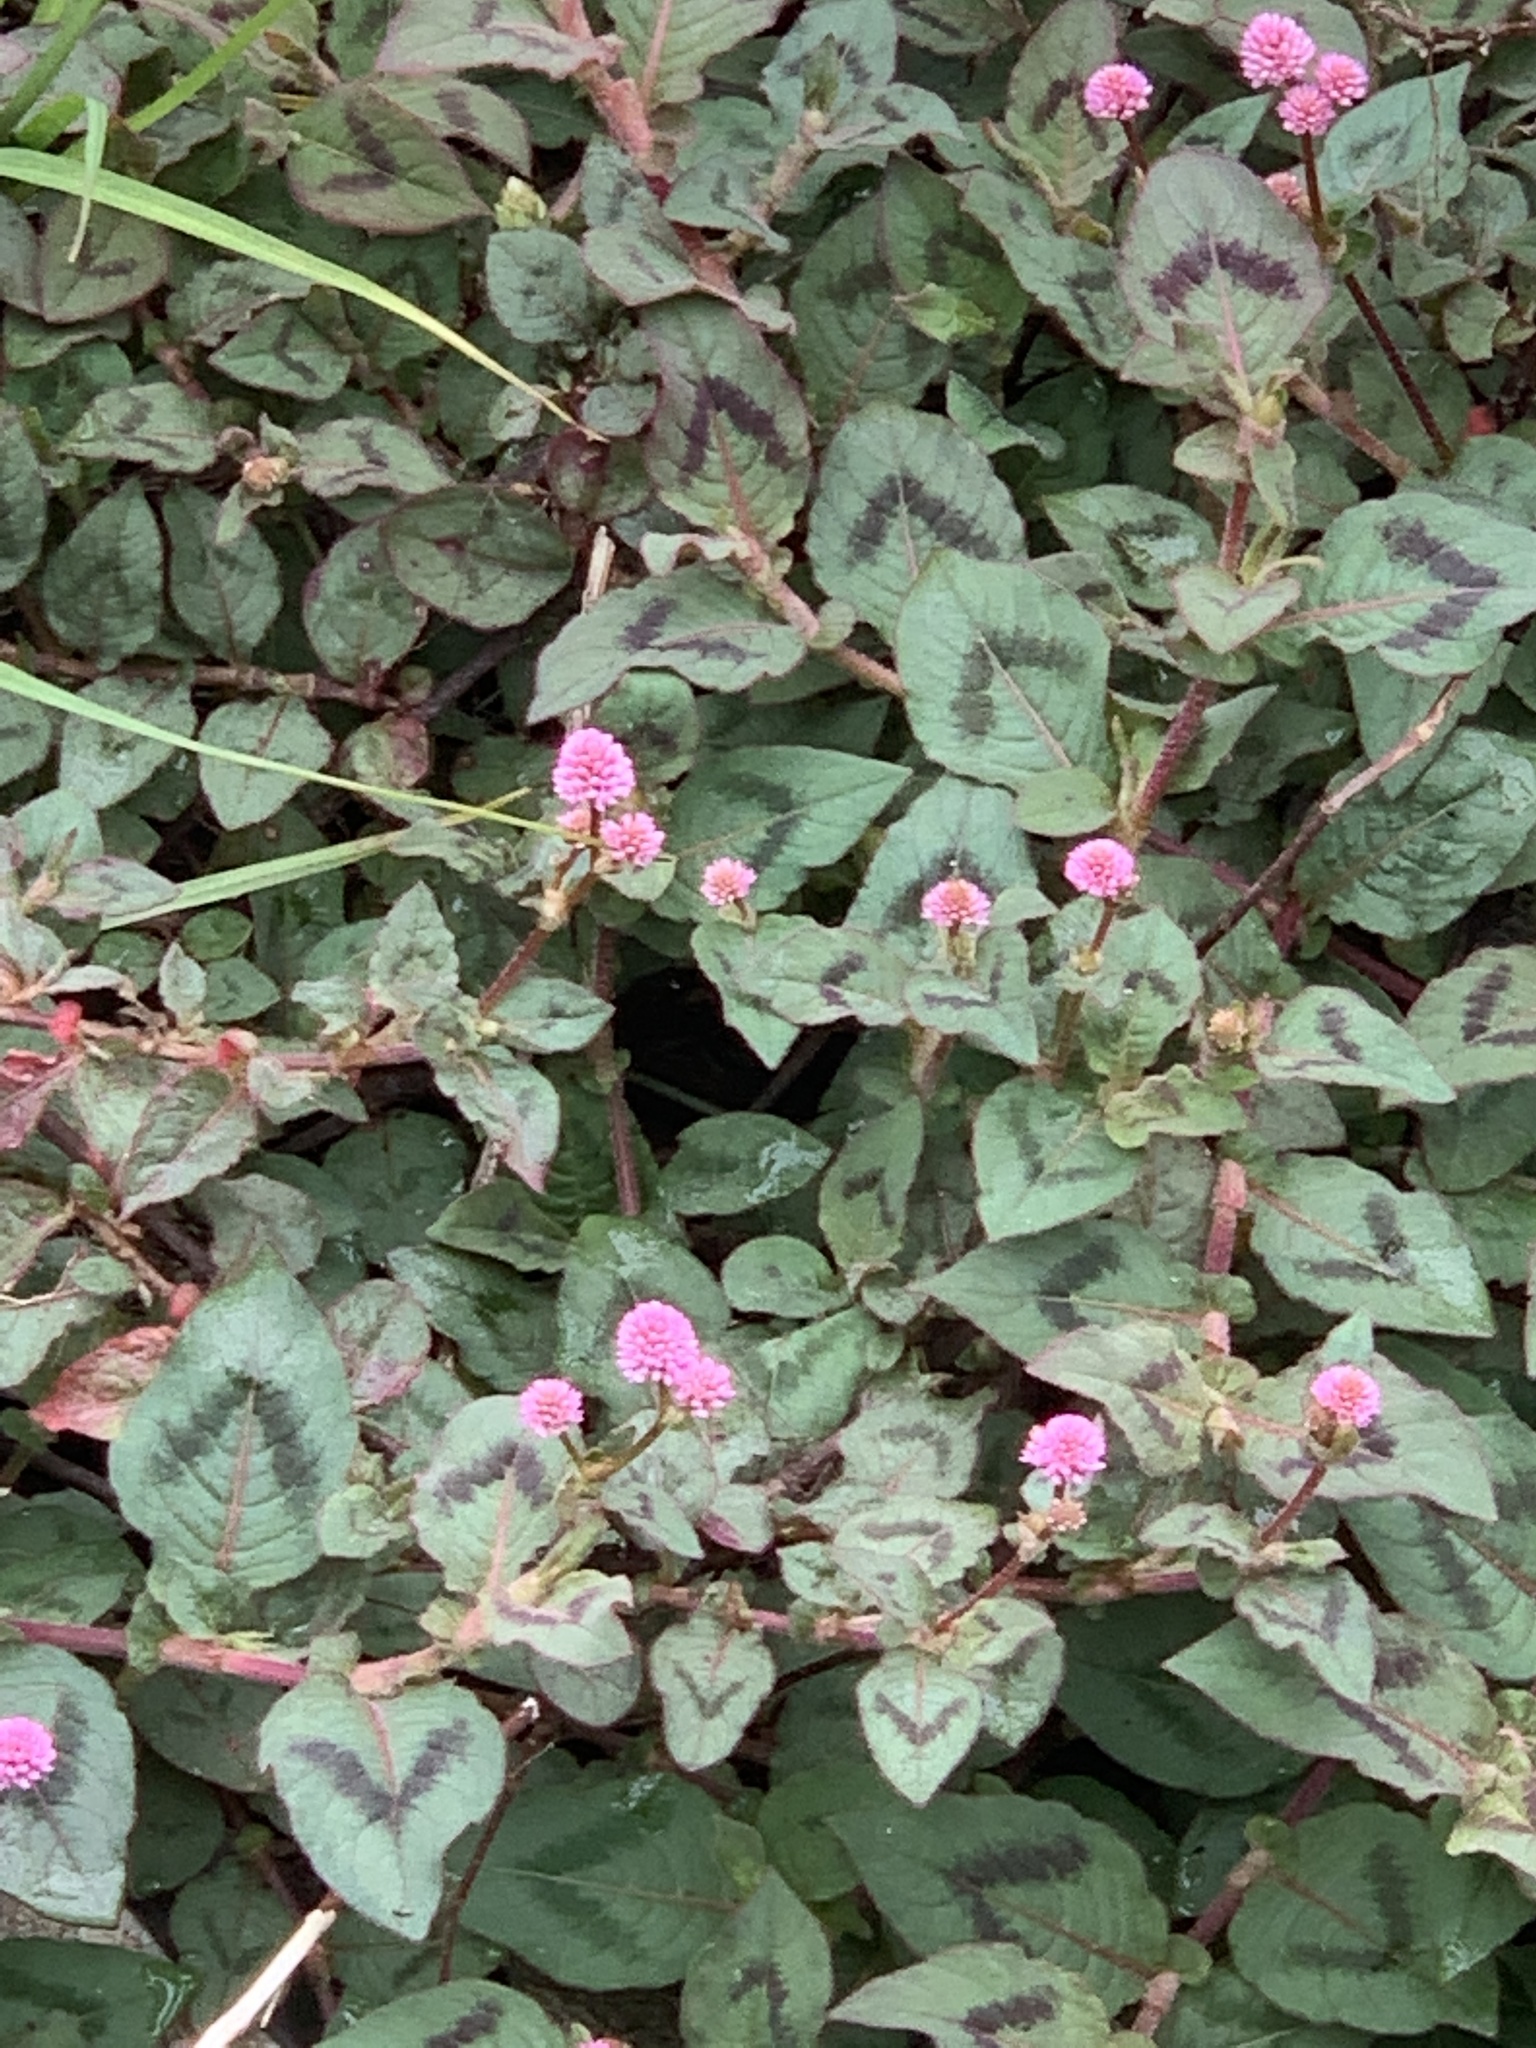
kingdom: Plantae
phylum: Tracheophyta
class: Magnoliopsida
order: Caryophyllales
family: Polygonaceae
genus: Persicaria
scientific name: Persicaria capitata
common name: Pinkhead smartweed
